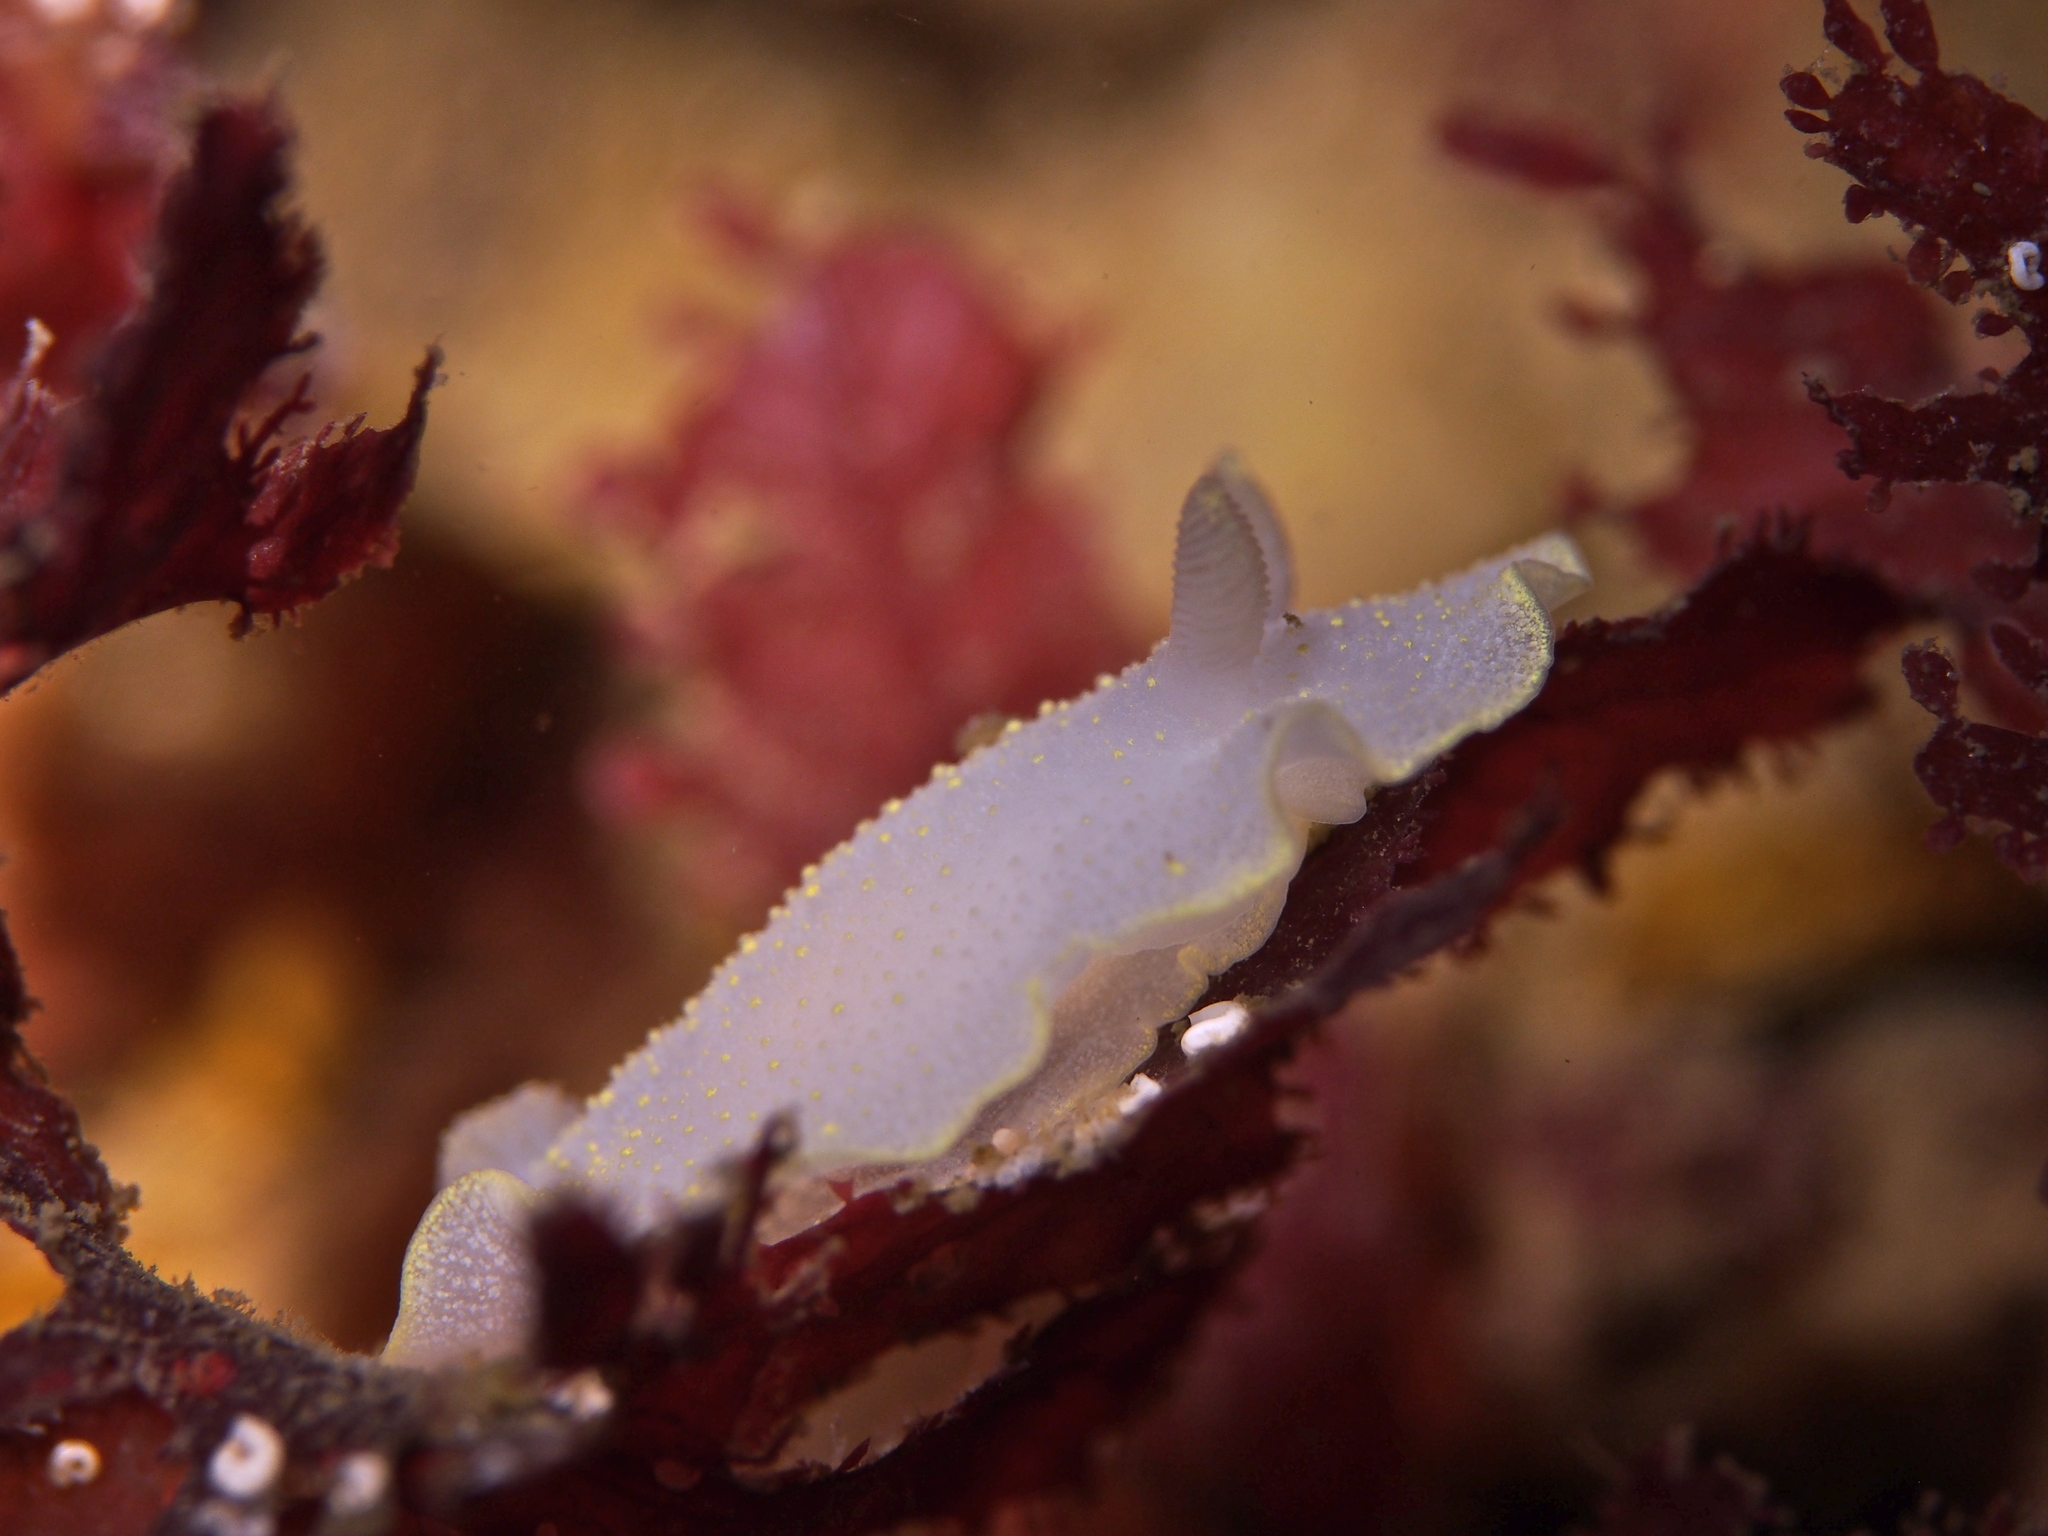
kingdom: Animalia
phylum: Mollusca
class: Gastropoda
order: Nudibranchia
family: Cadlinidae
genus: Cadlina
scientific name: Cadlina laevis
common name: White atlantic cadlina
